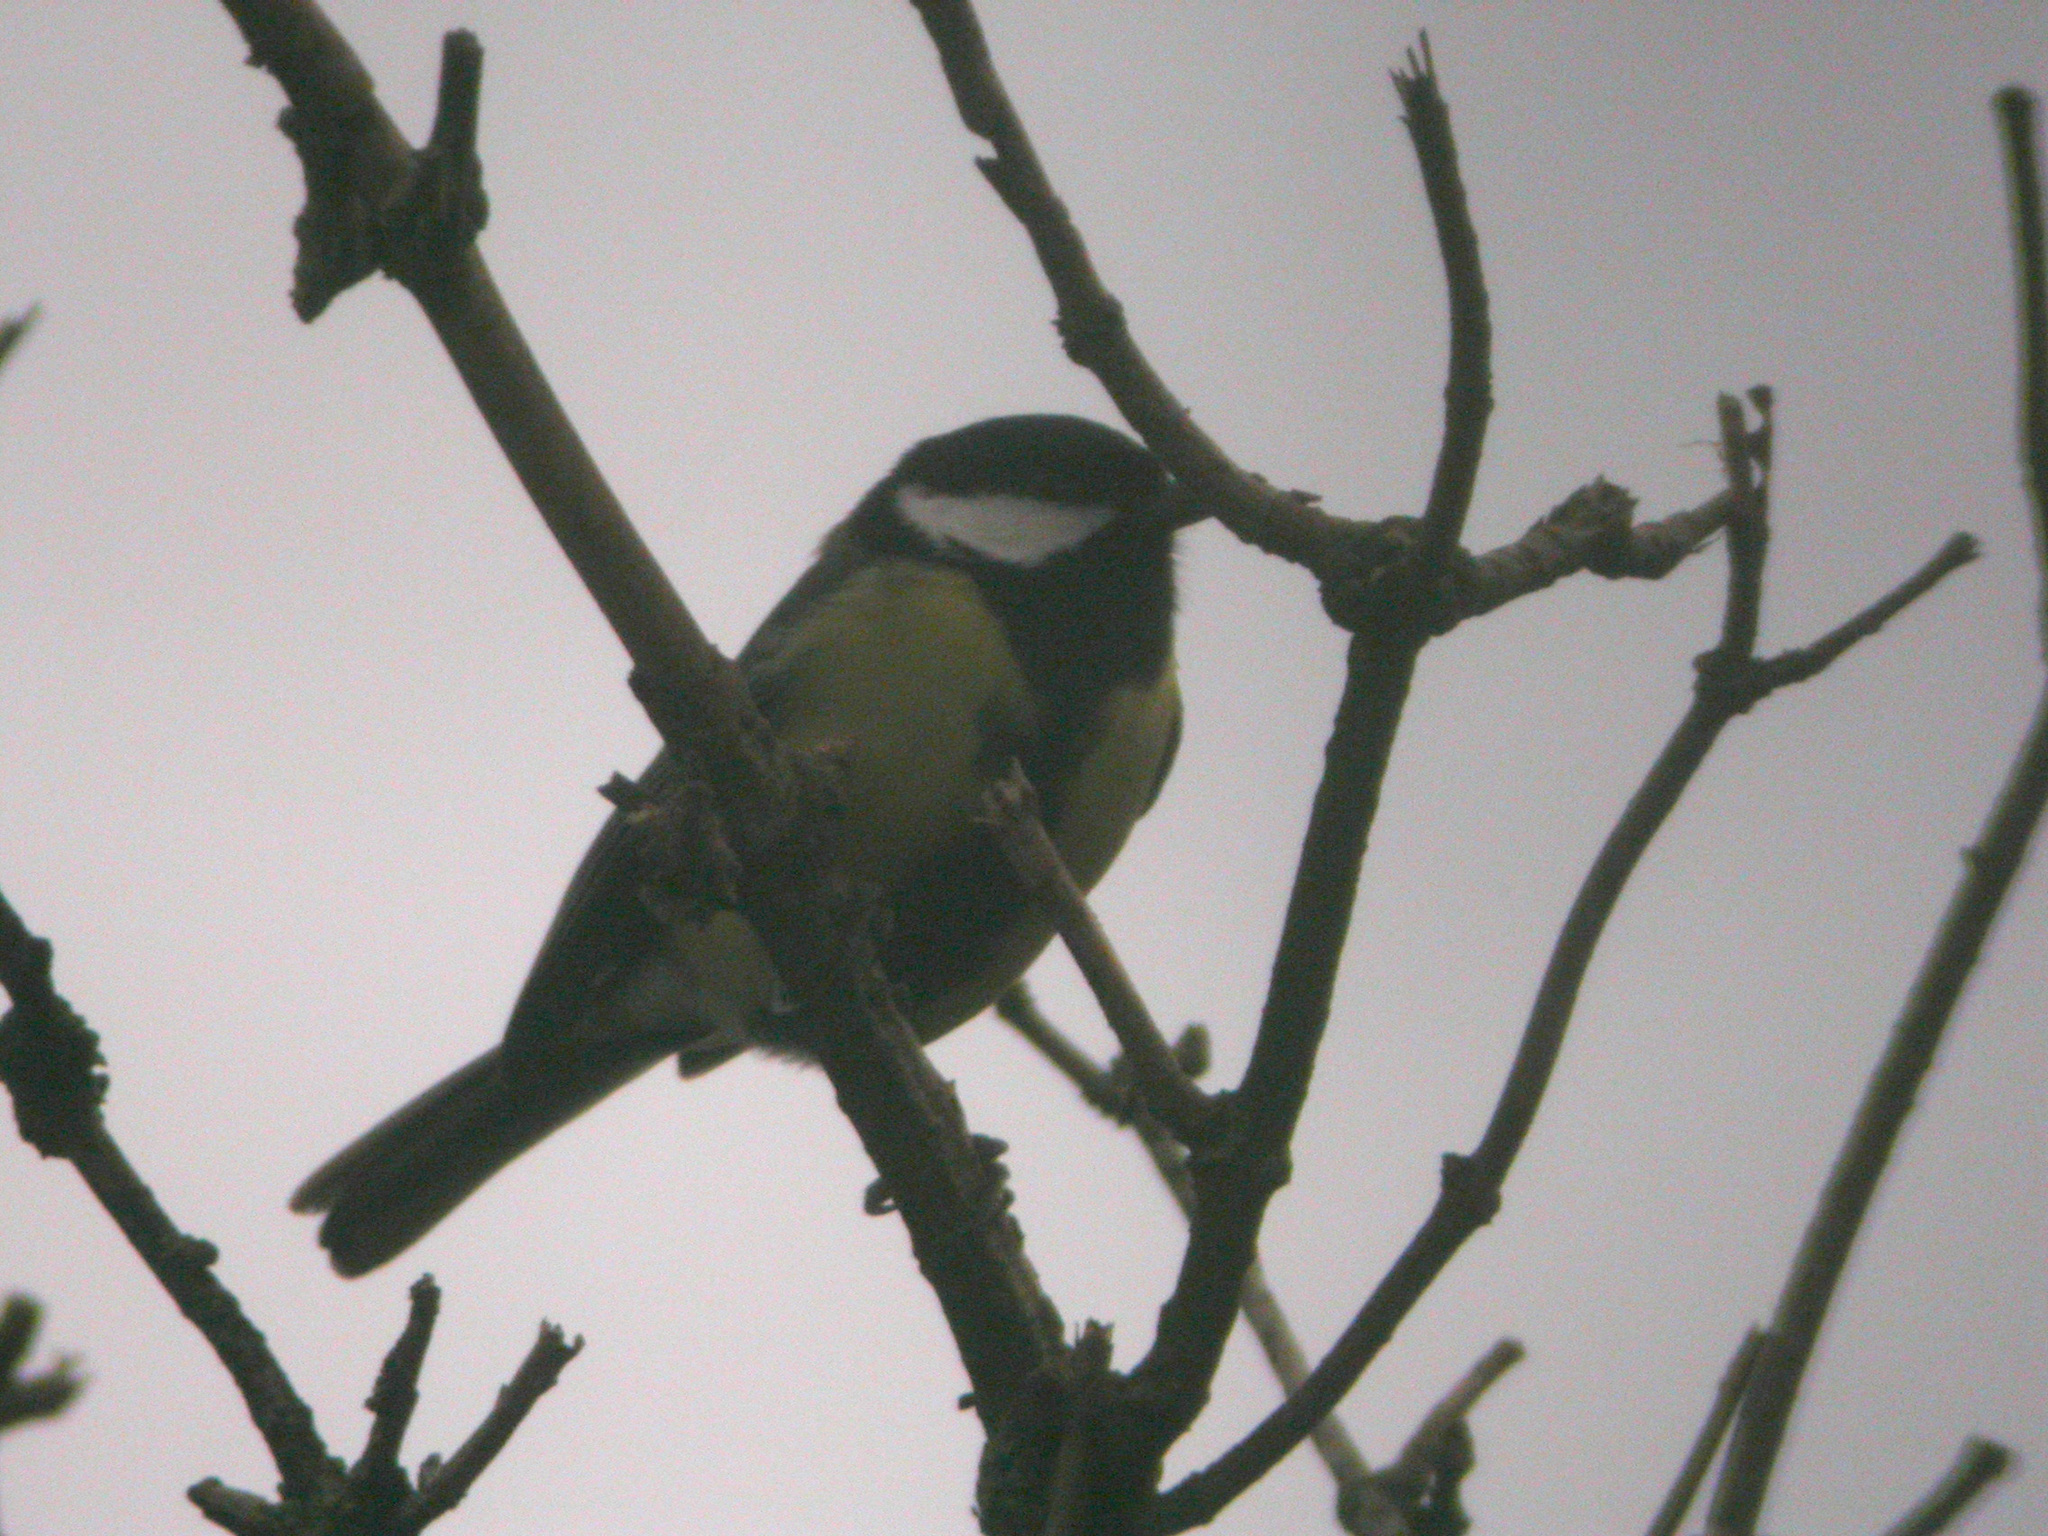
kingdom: Animalia
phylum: Chordata
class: Aves
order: Passeriformes
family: Paridae
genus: Parus
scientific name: Parus major
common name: Great tit
